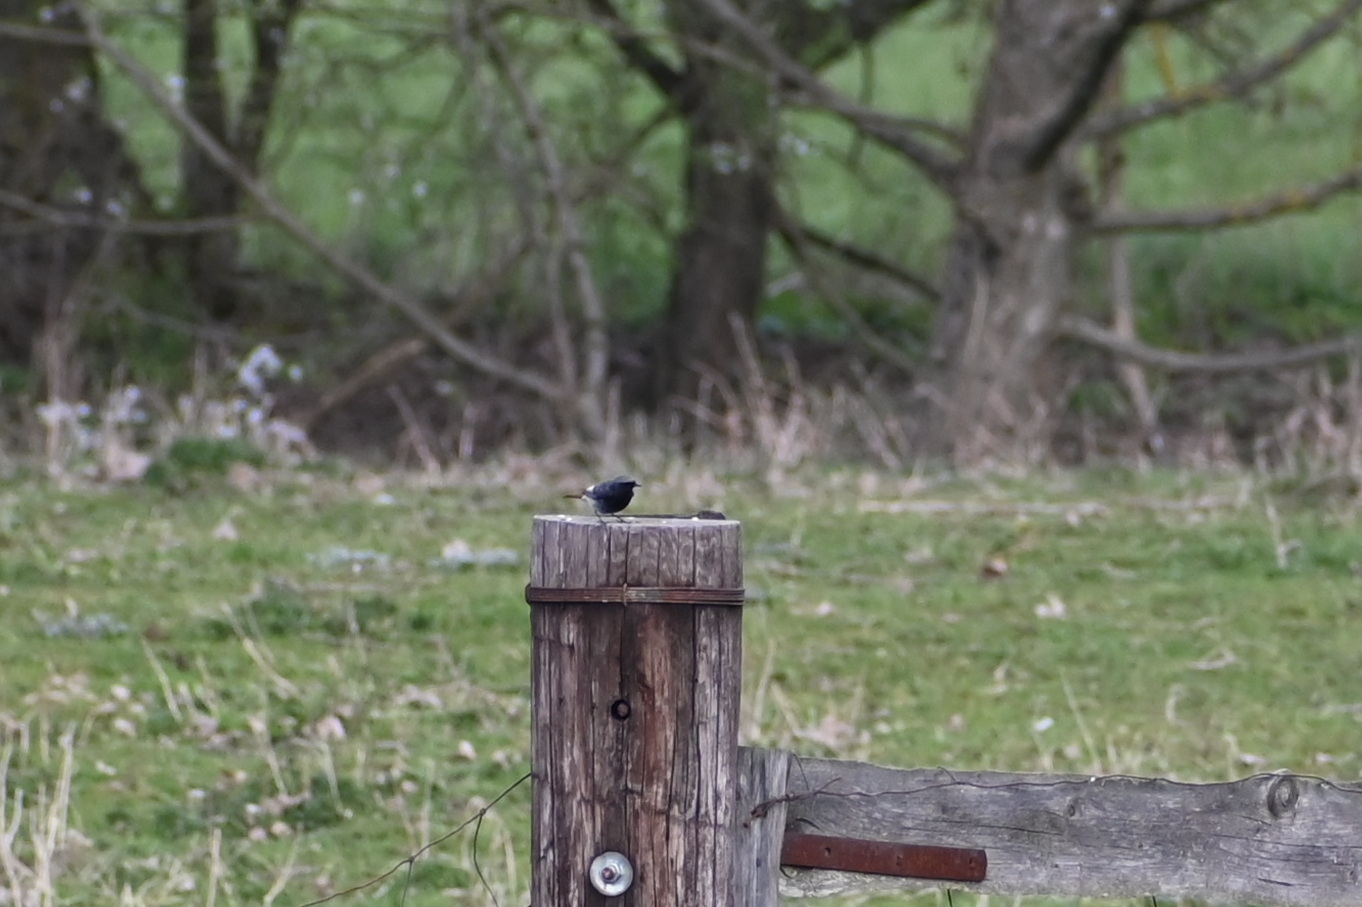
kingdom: Animalia
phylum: Chordata
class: Aves
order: Passeriformes
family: Muscicapidae
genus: Phoenicurus
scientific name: Phoenicurus ochruros
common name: Black redstart
